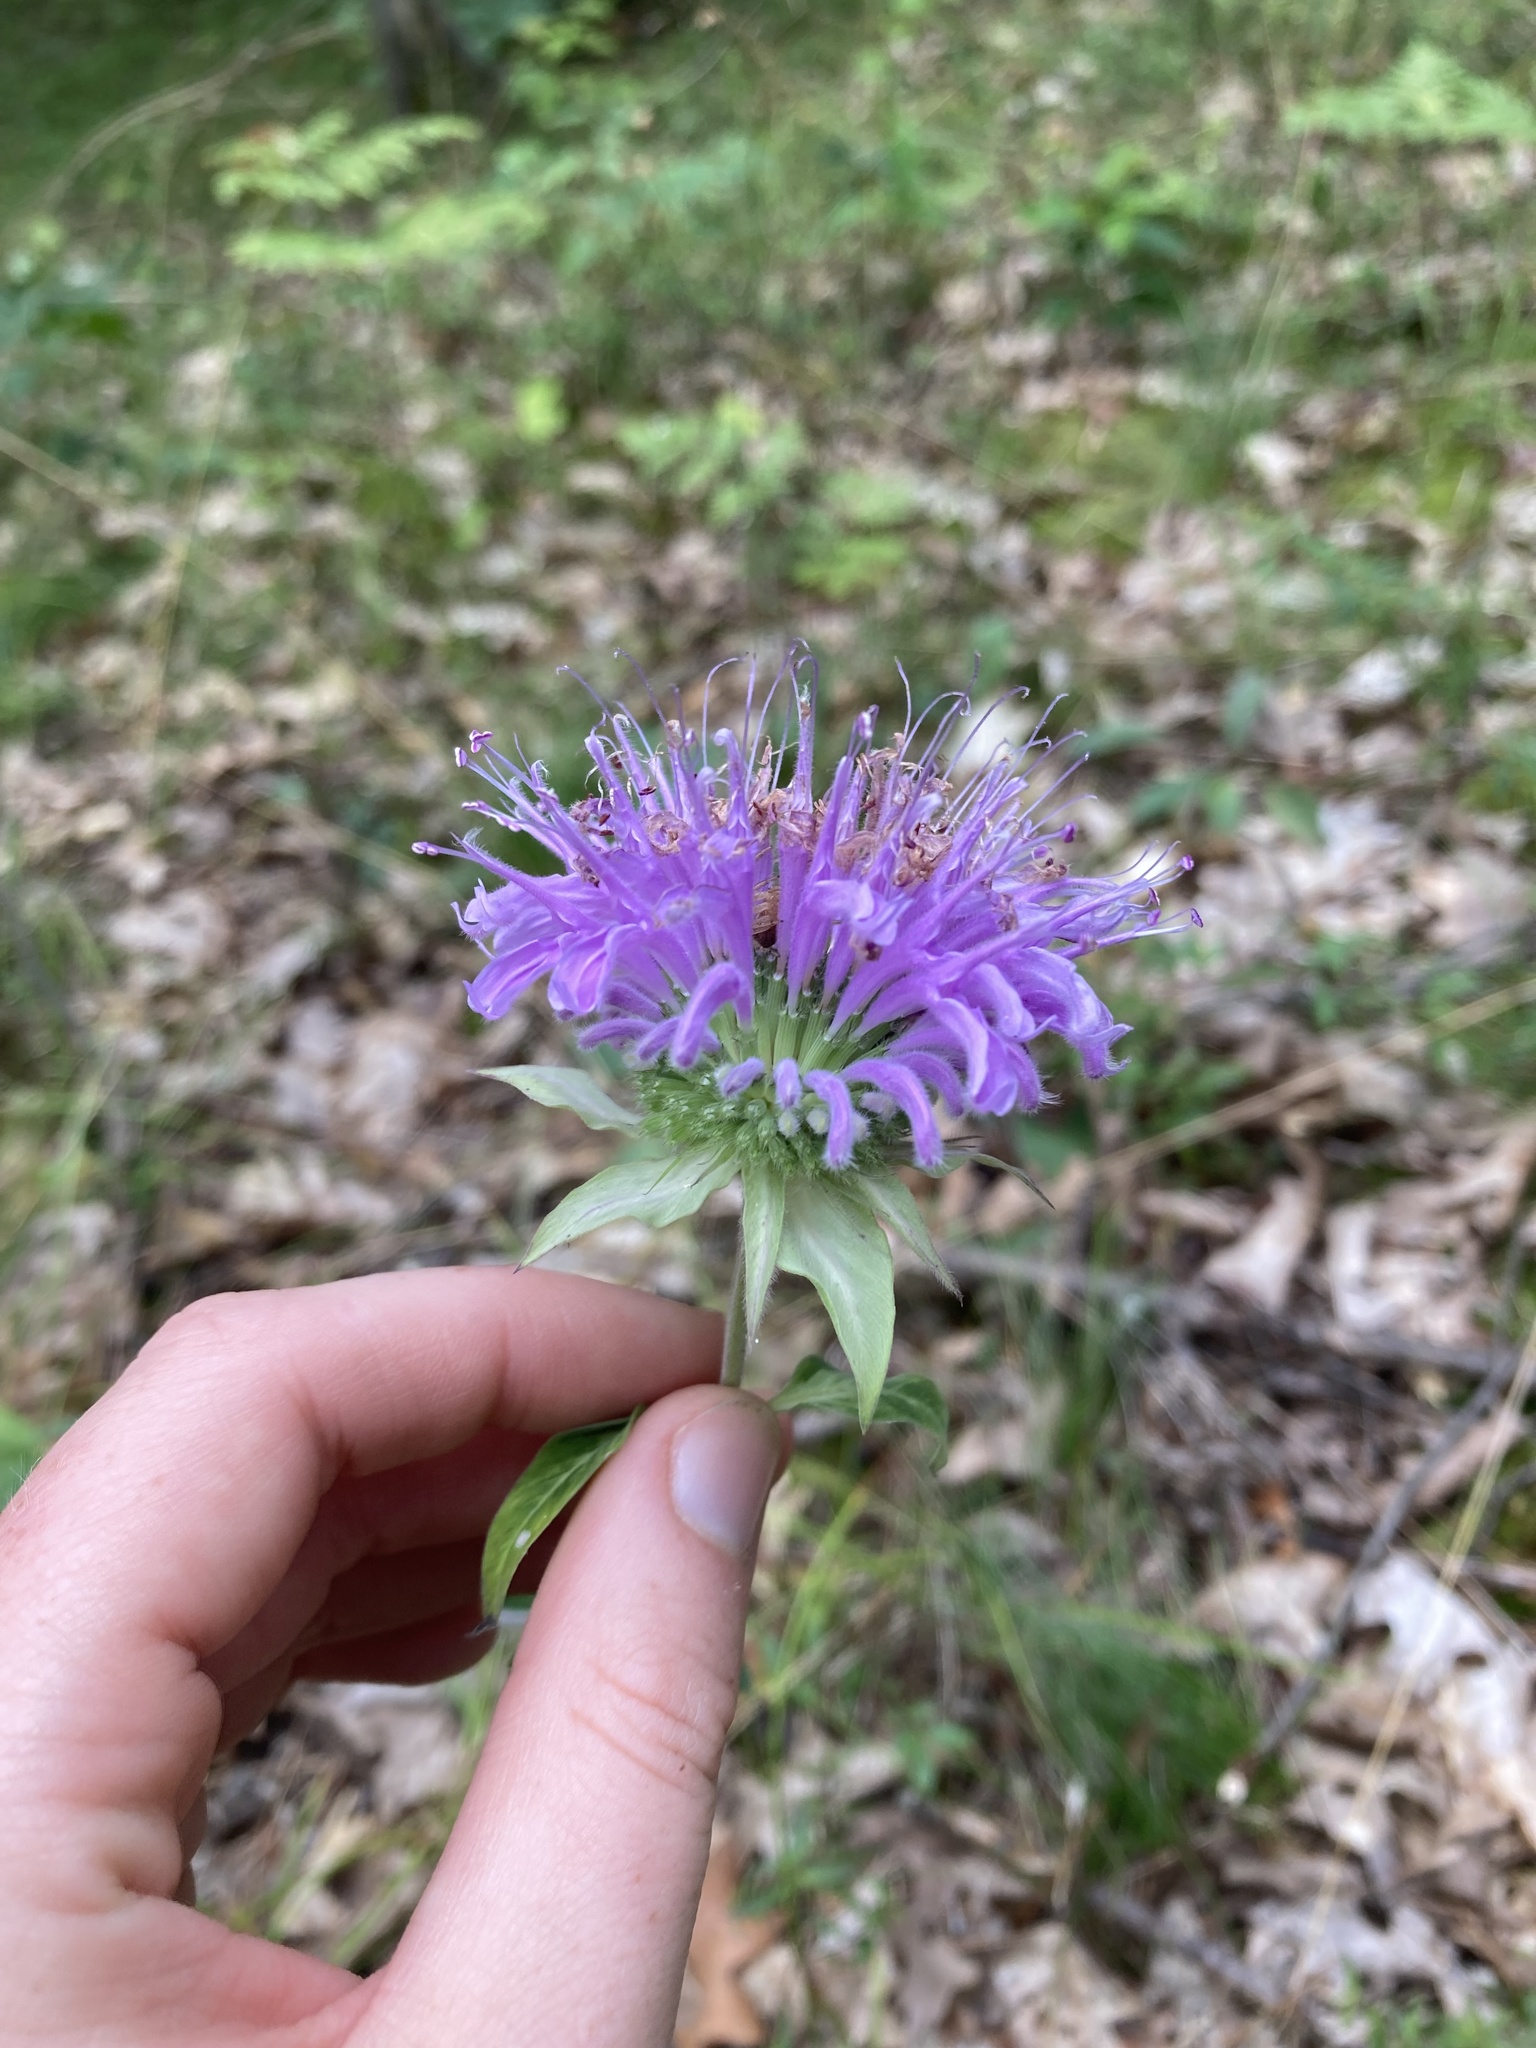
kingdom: Plantae
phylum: Tracheophyta
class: Magnoliopsida
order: Lamiales
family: Lamiaceae
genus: Monarda
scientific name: Monarda fistulosa
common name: Purple beebalm
